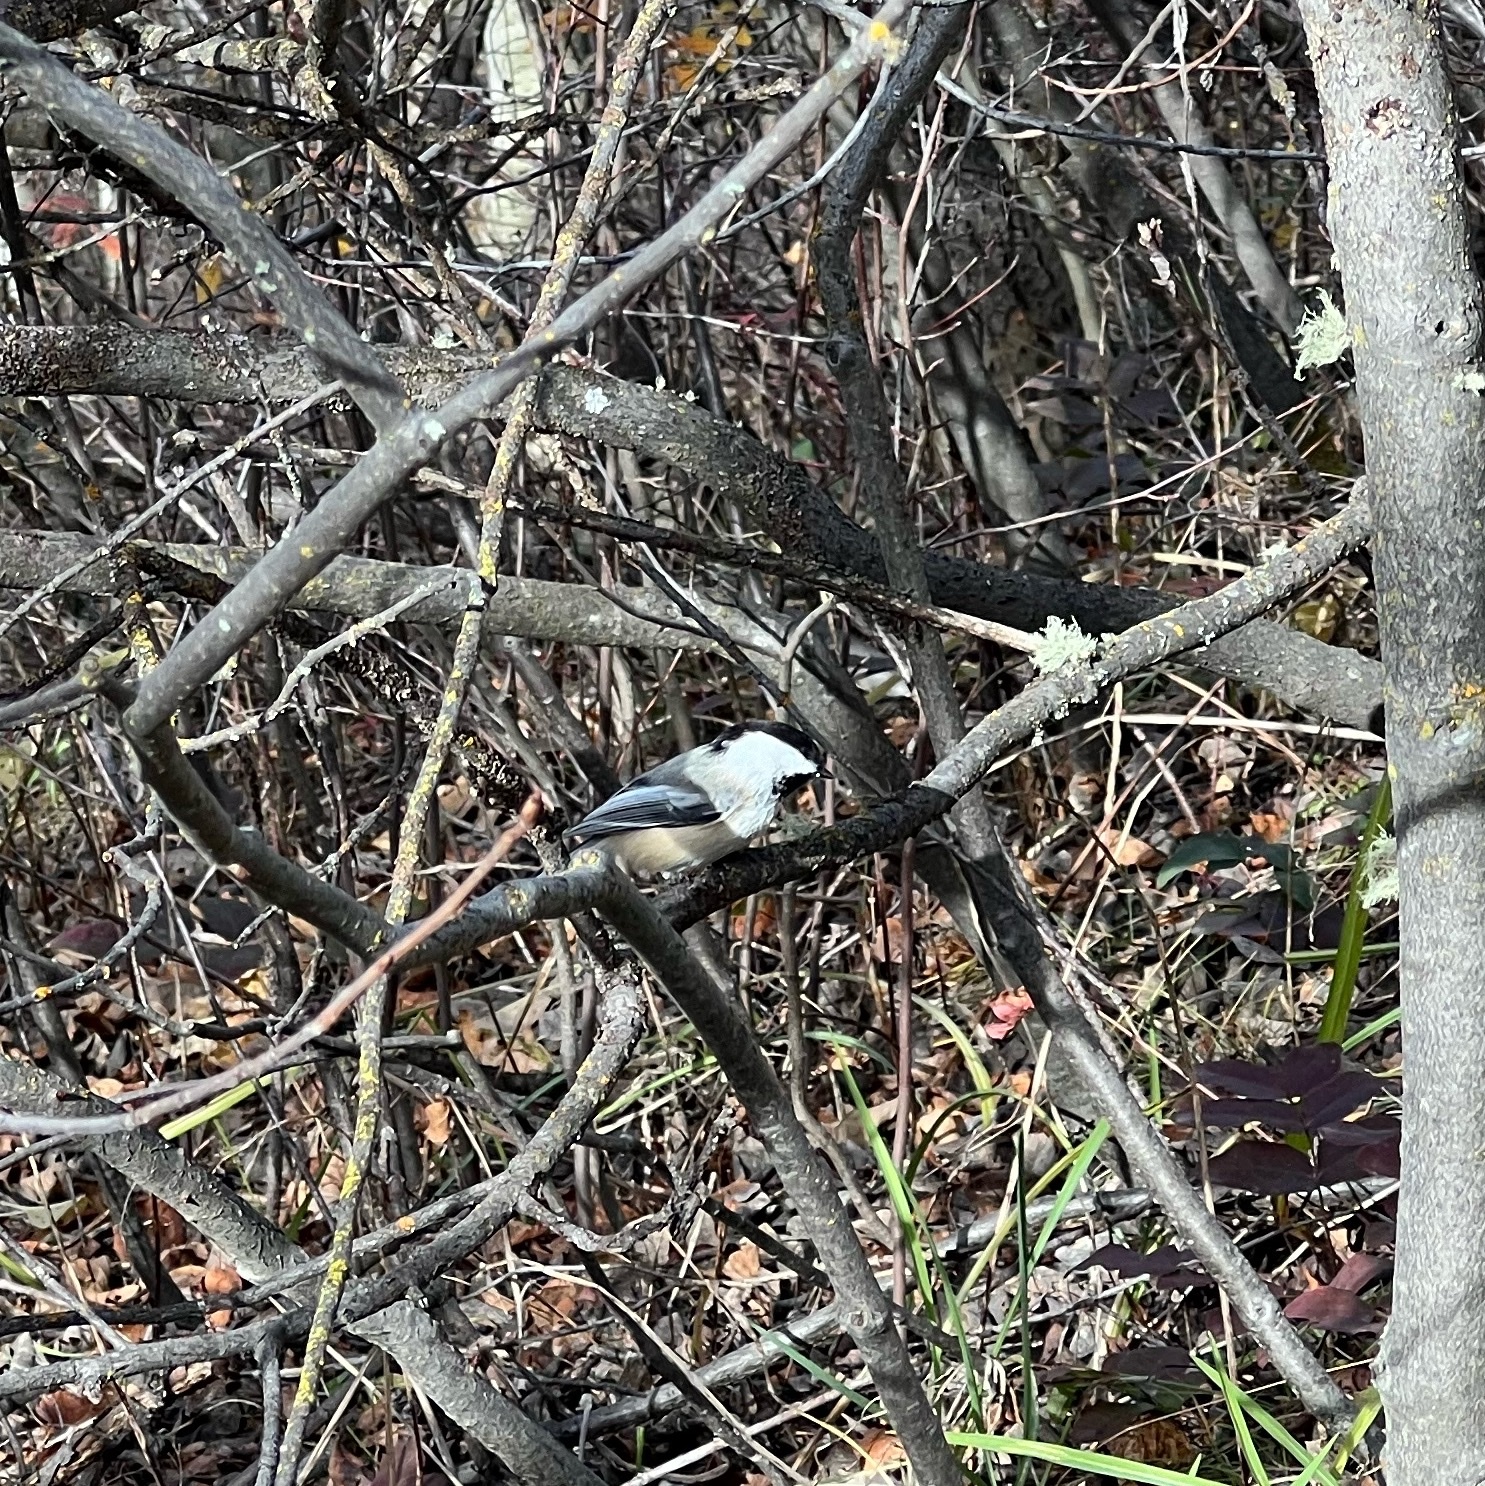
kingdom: Animalia
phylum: Chordata
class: Aves
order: Passeriformes
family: Paridae
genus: Poecile
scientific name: Poecile atricapillus
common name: Black-capped chickadee
